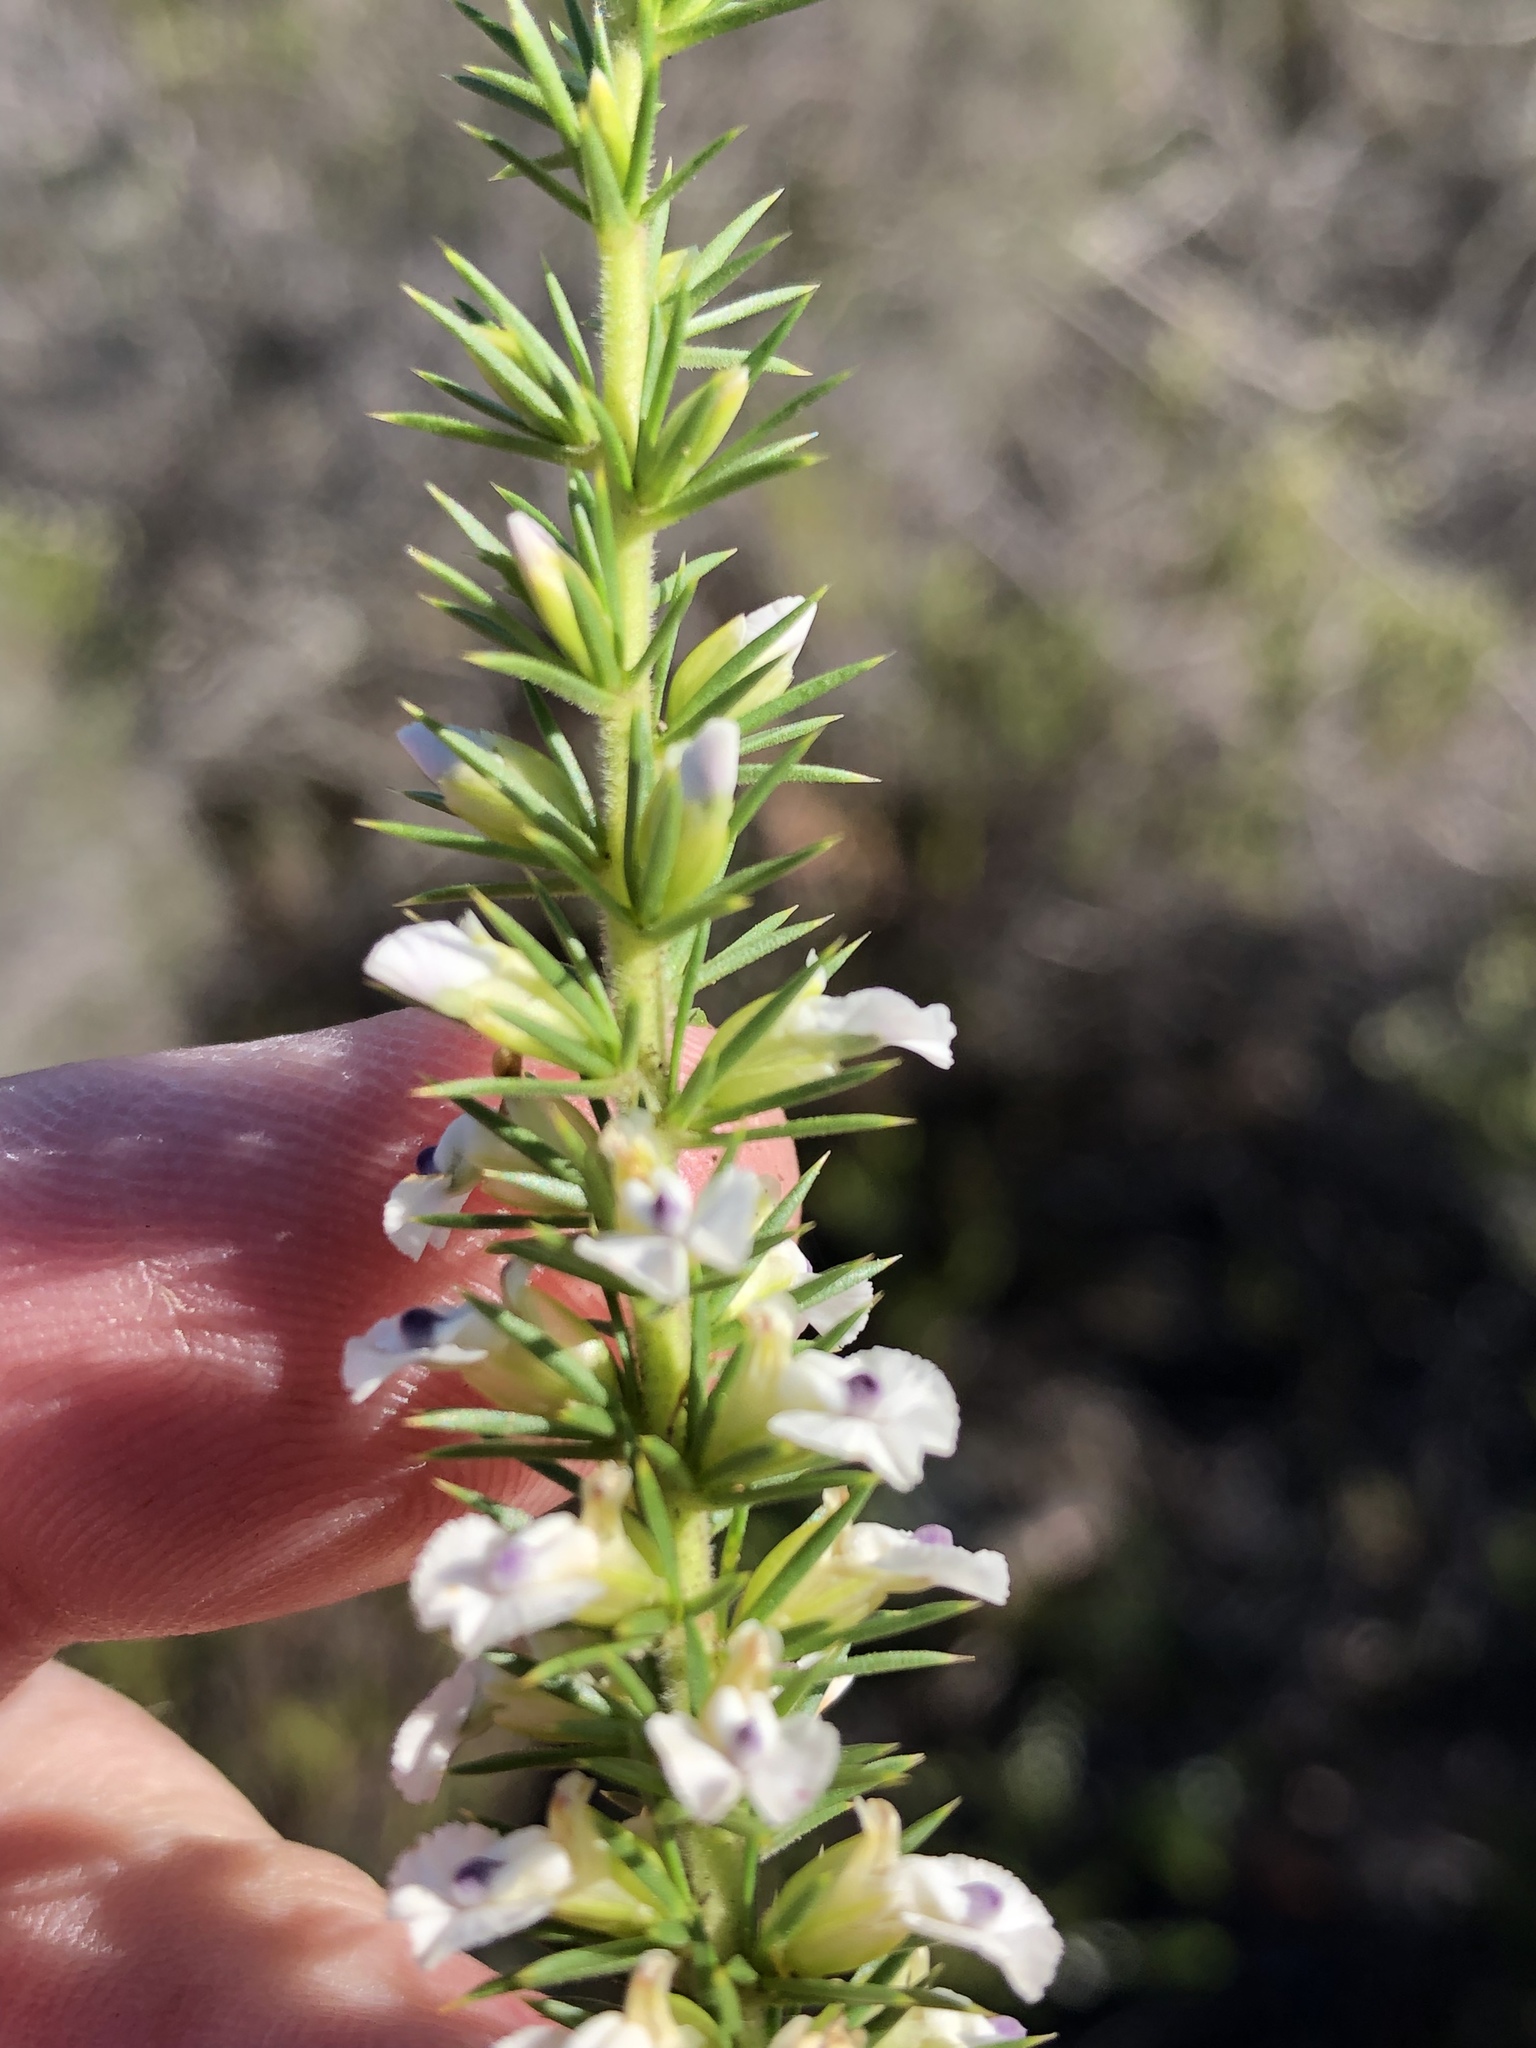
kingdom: Plantae
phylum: Tracheophyta
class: Magnoliopsida
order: Fabales
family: Polygalaceae
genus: Muraltia
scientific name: Muraltia ericifolia
